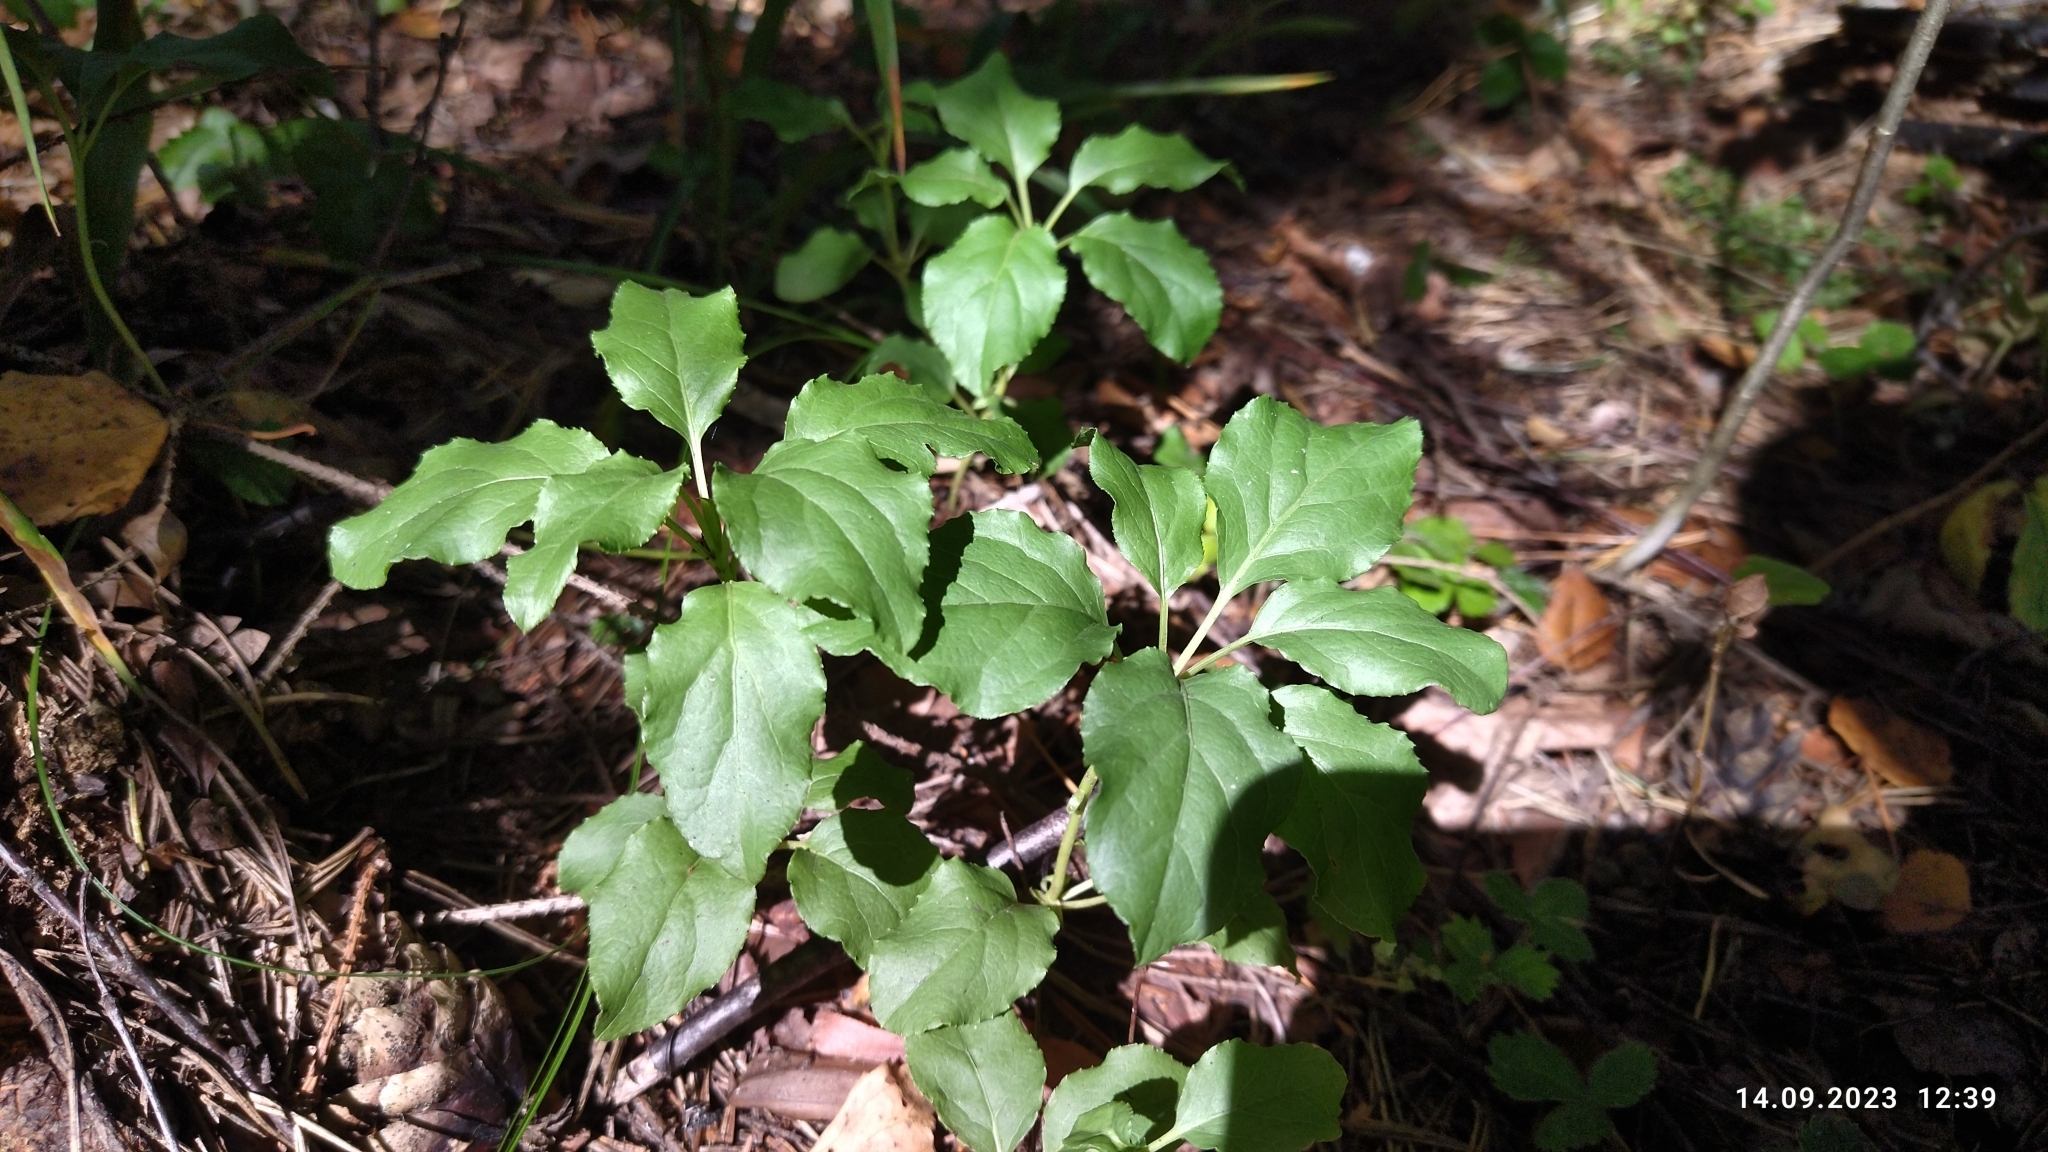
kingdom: Plantae
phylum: Tracheophyta
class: Magnoliopsida
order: Ericales
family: Ericaceae
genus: Orthilia
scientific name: Orthilia secunda
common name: One-sided orthilia
